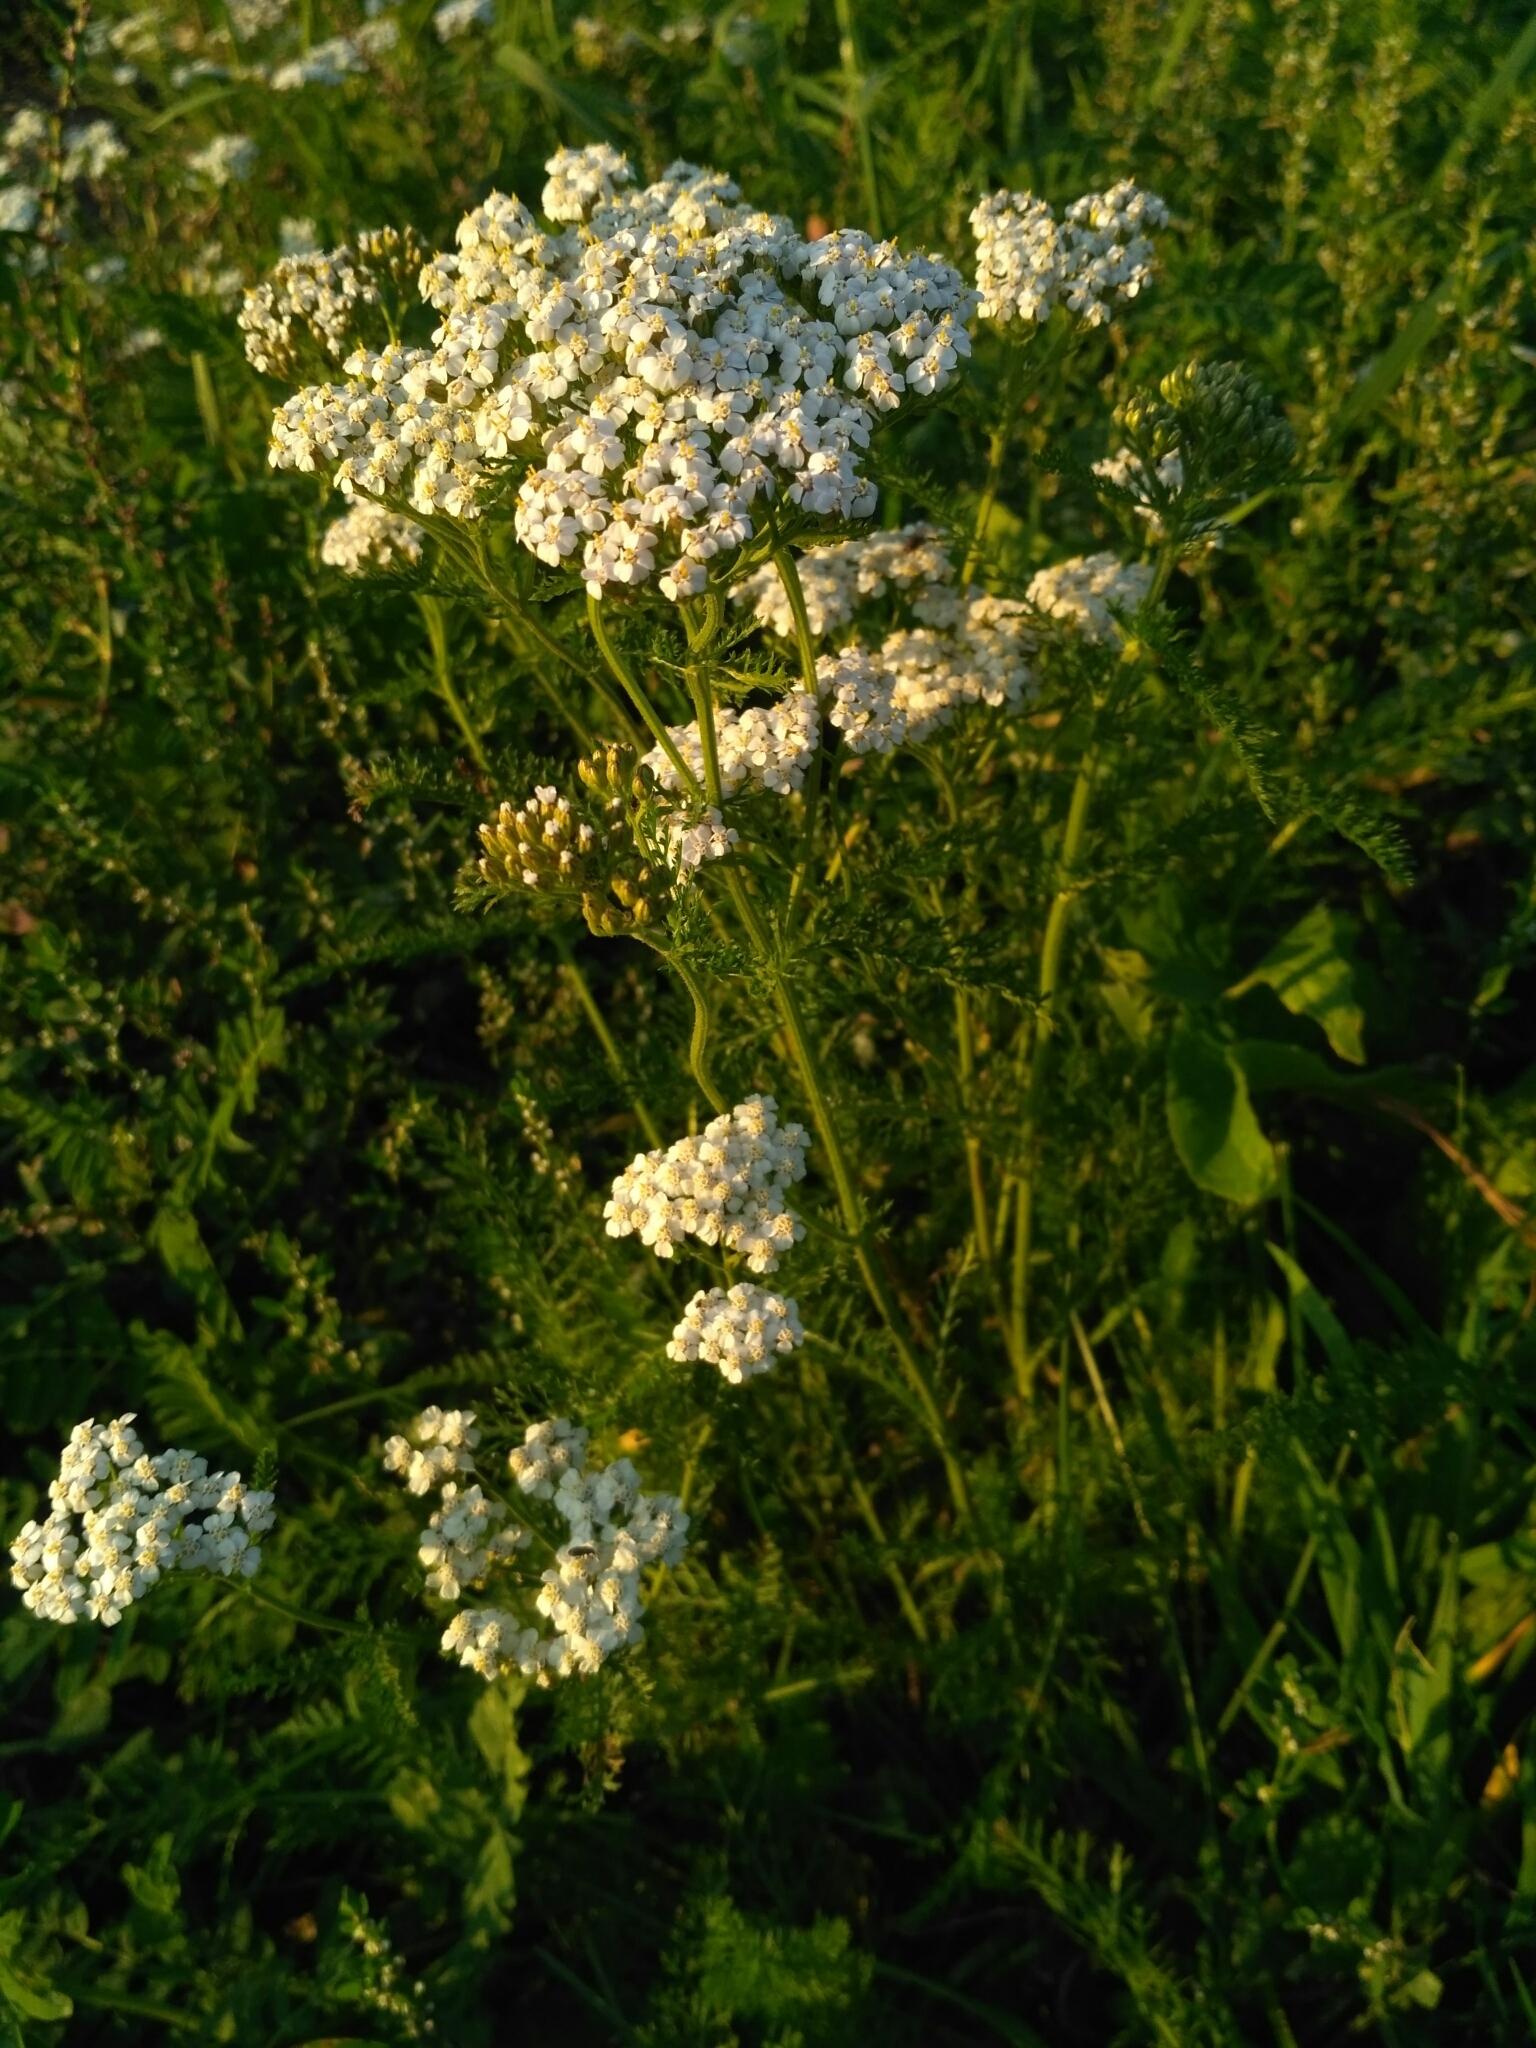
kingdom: Plantae
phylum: Tracheophyta
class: Magnoliopsida
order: Asterales
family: Asteraceae
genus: Achillea
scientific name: Achillea millefolium
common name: Yarrow
